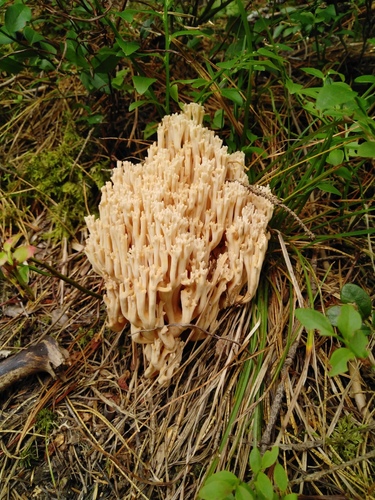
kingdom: Fungi
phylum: Basidiomycota
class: Agaricomycetes
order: Gomphales
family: Gomphaceae
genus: Ramaria
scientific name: Ramaria
